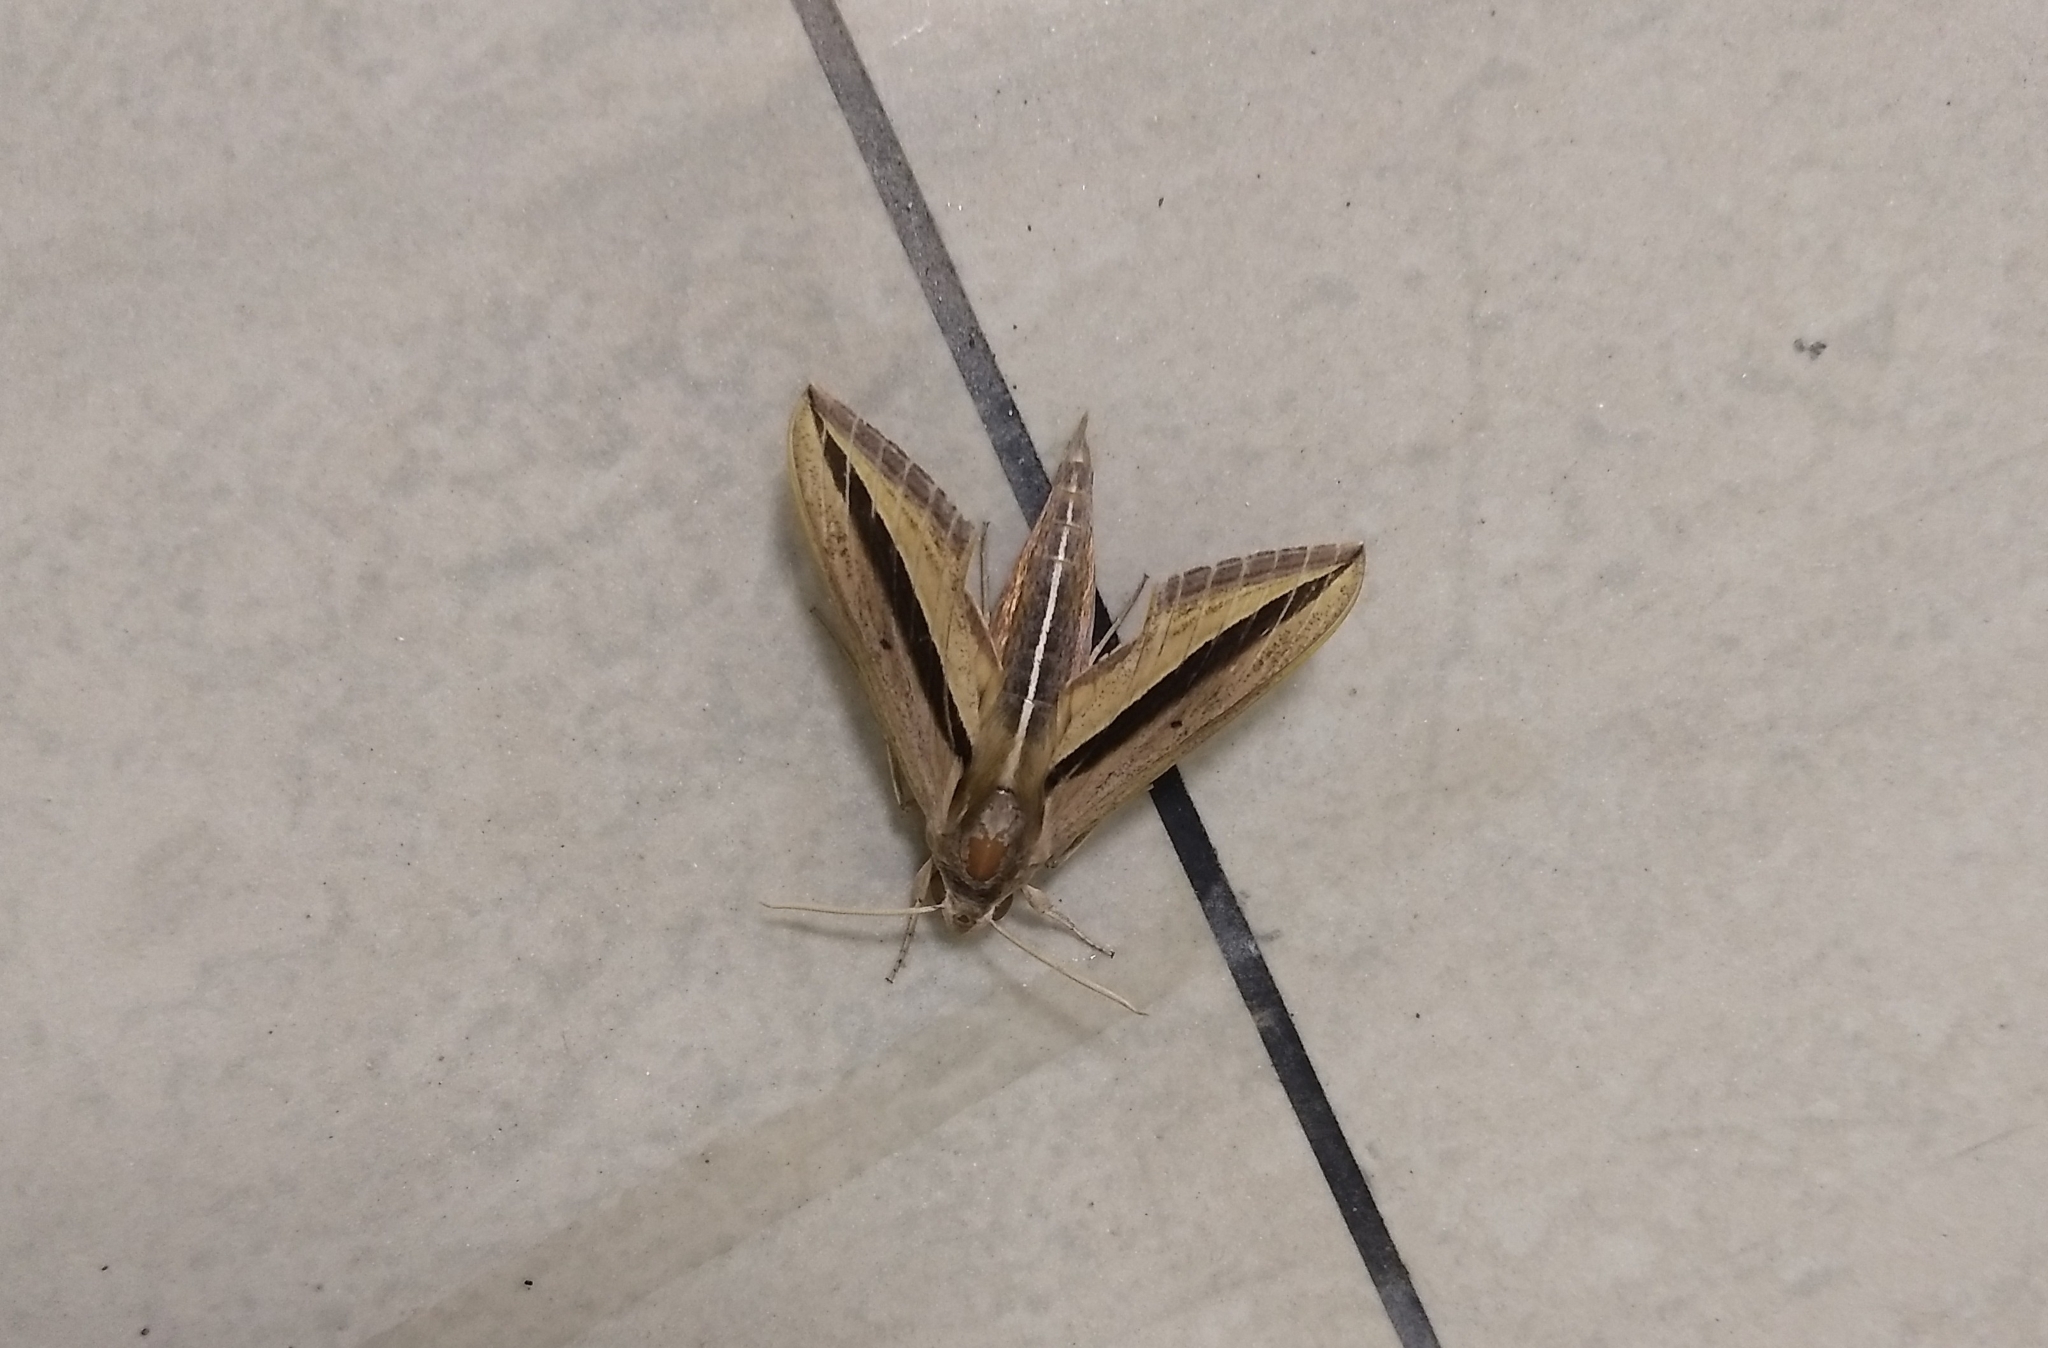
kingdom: Animalia
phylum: Arthropoda
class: Insecta
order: Lepidoptera
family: Sphingidae
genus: Theretra
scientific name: Theretra silhetensis
